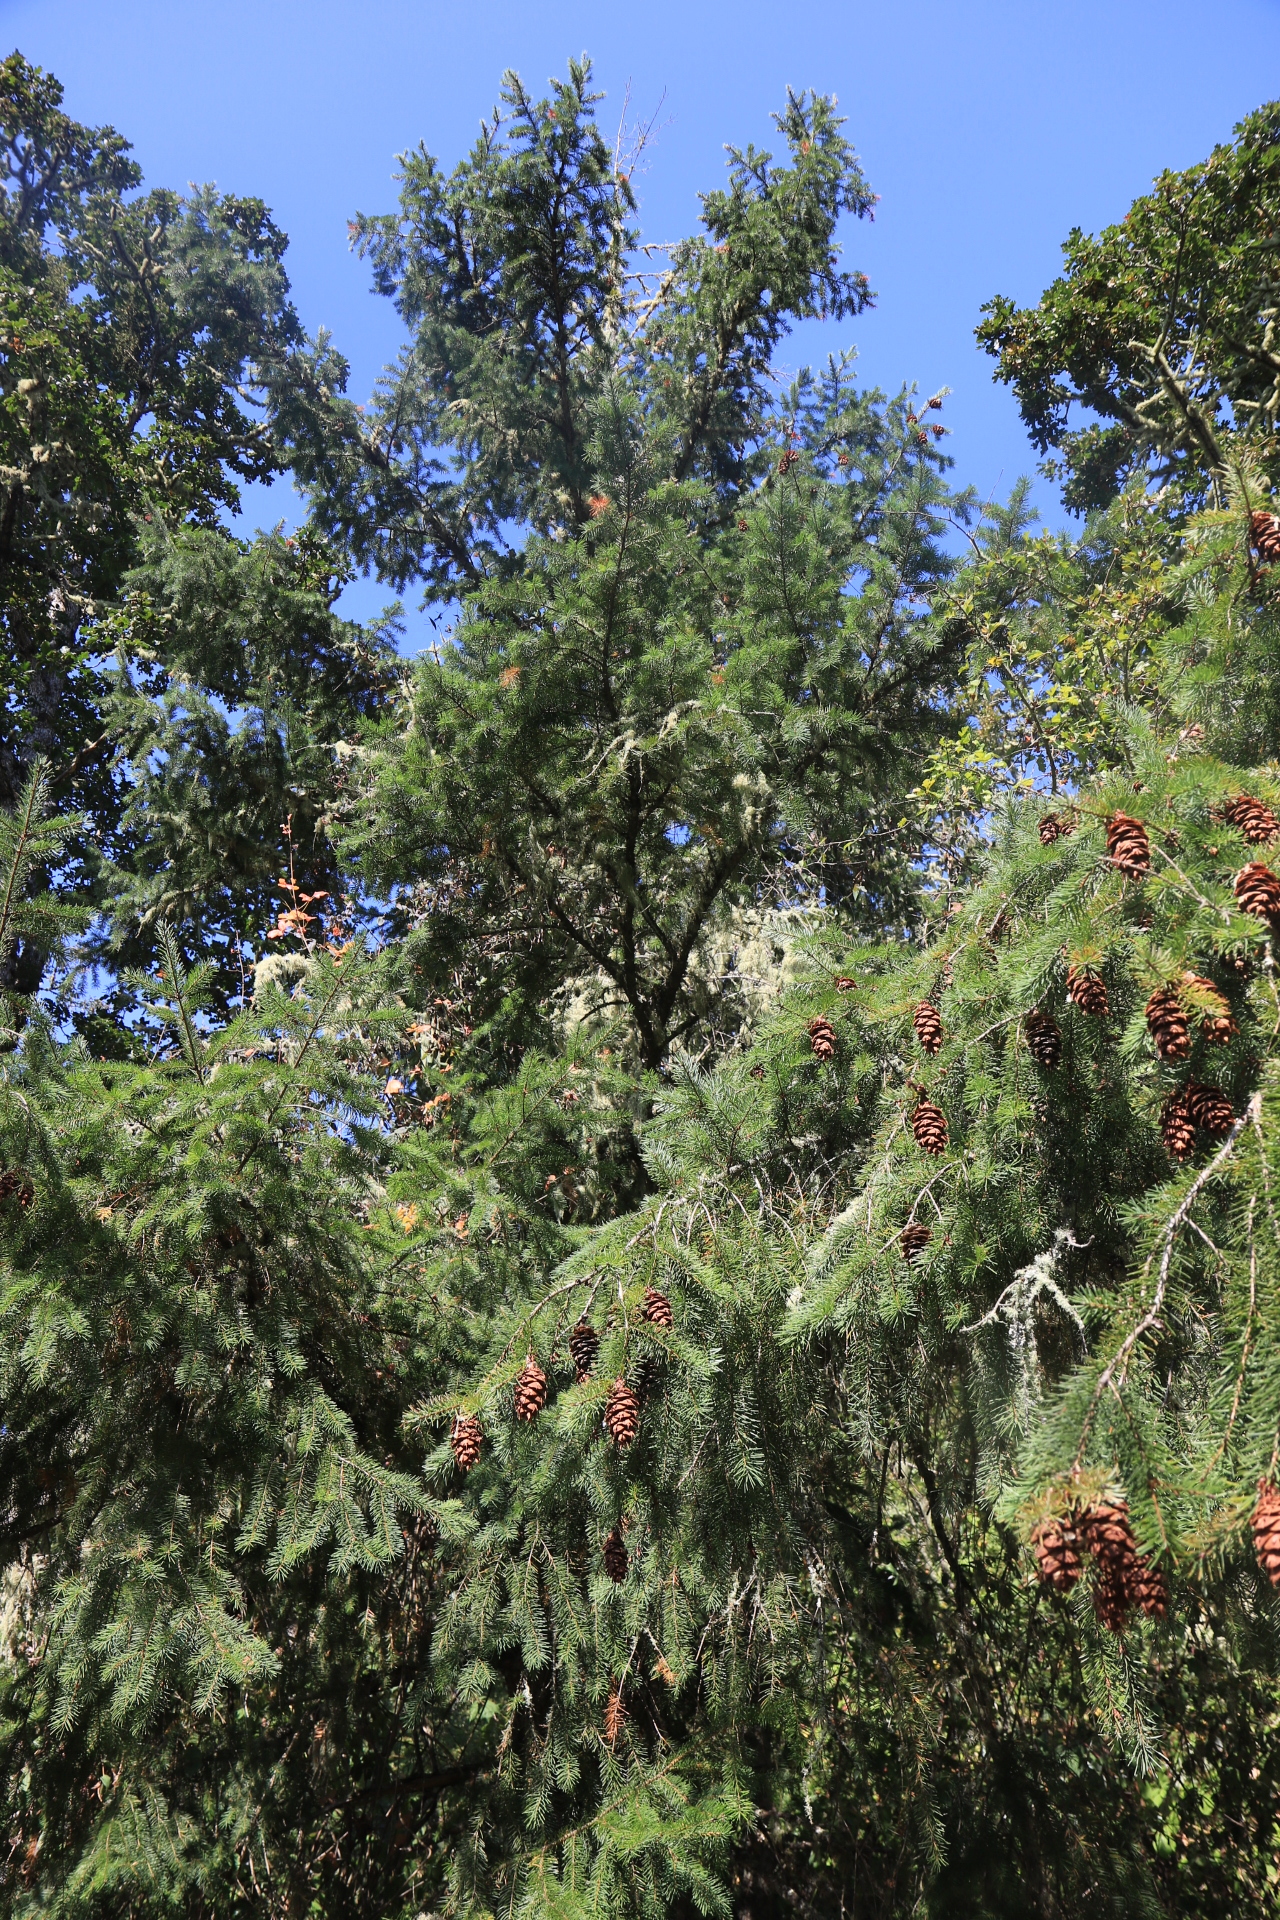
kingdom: Plantae
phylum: Tracheophyta
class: Pinopsida
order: Pinales
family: Pinaceae
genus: Pseudotsuga
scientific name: Pseudotsuga menziesii
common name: Douglas fir
